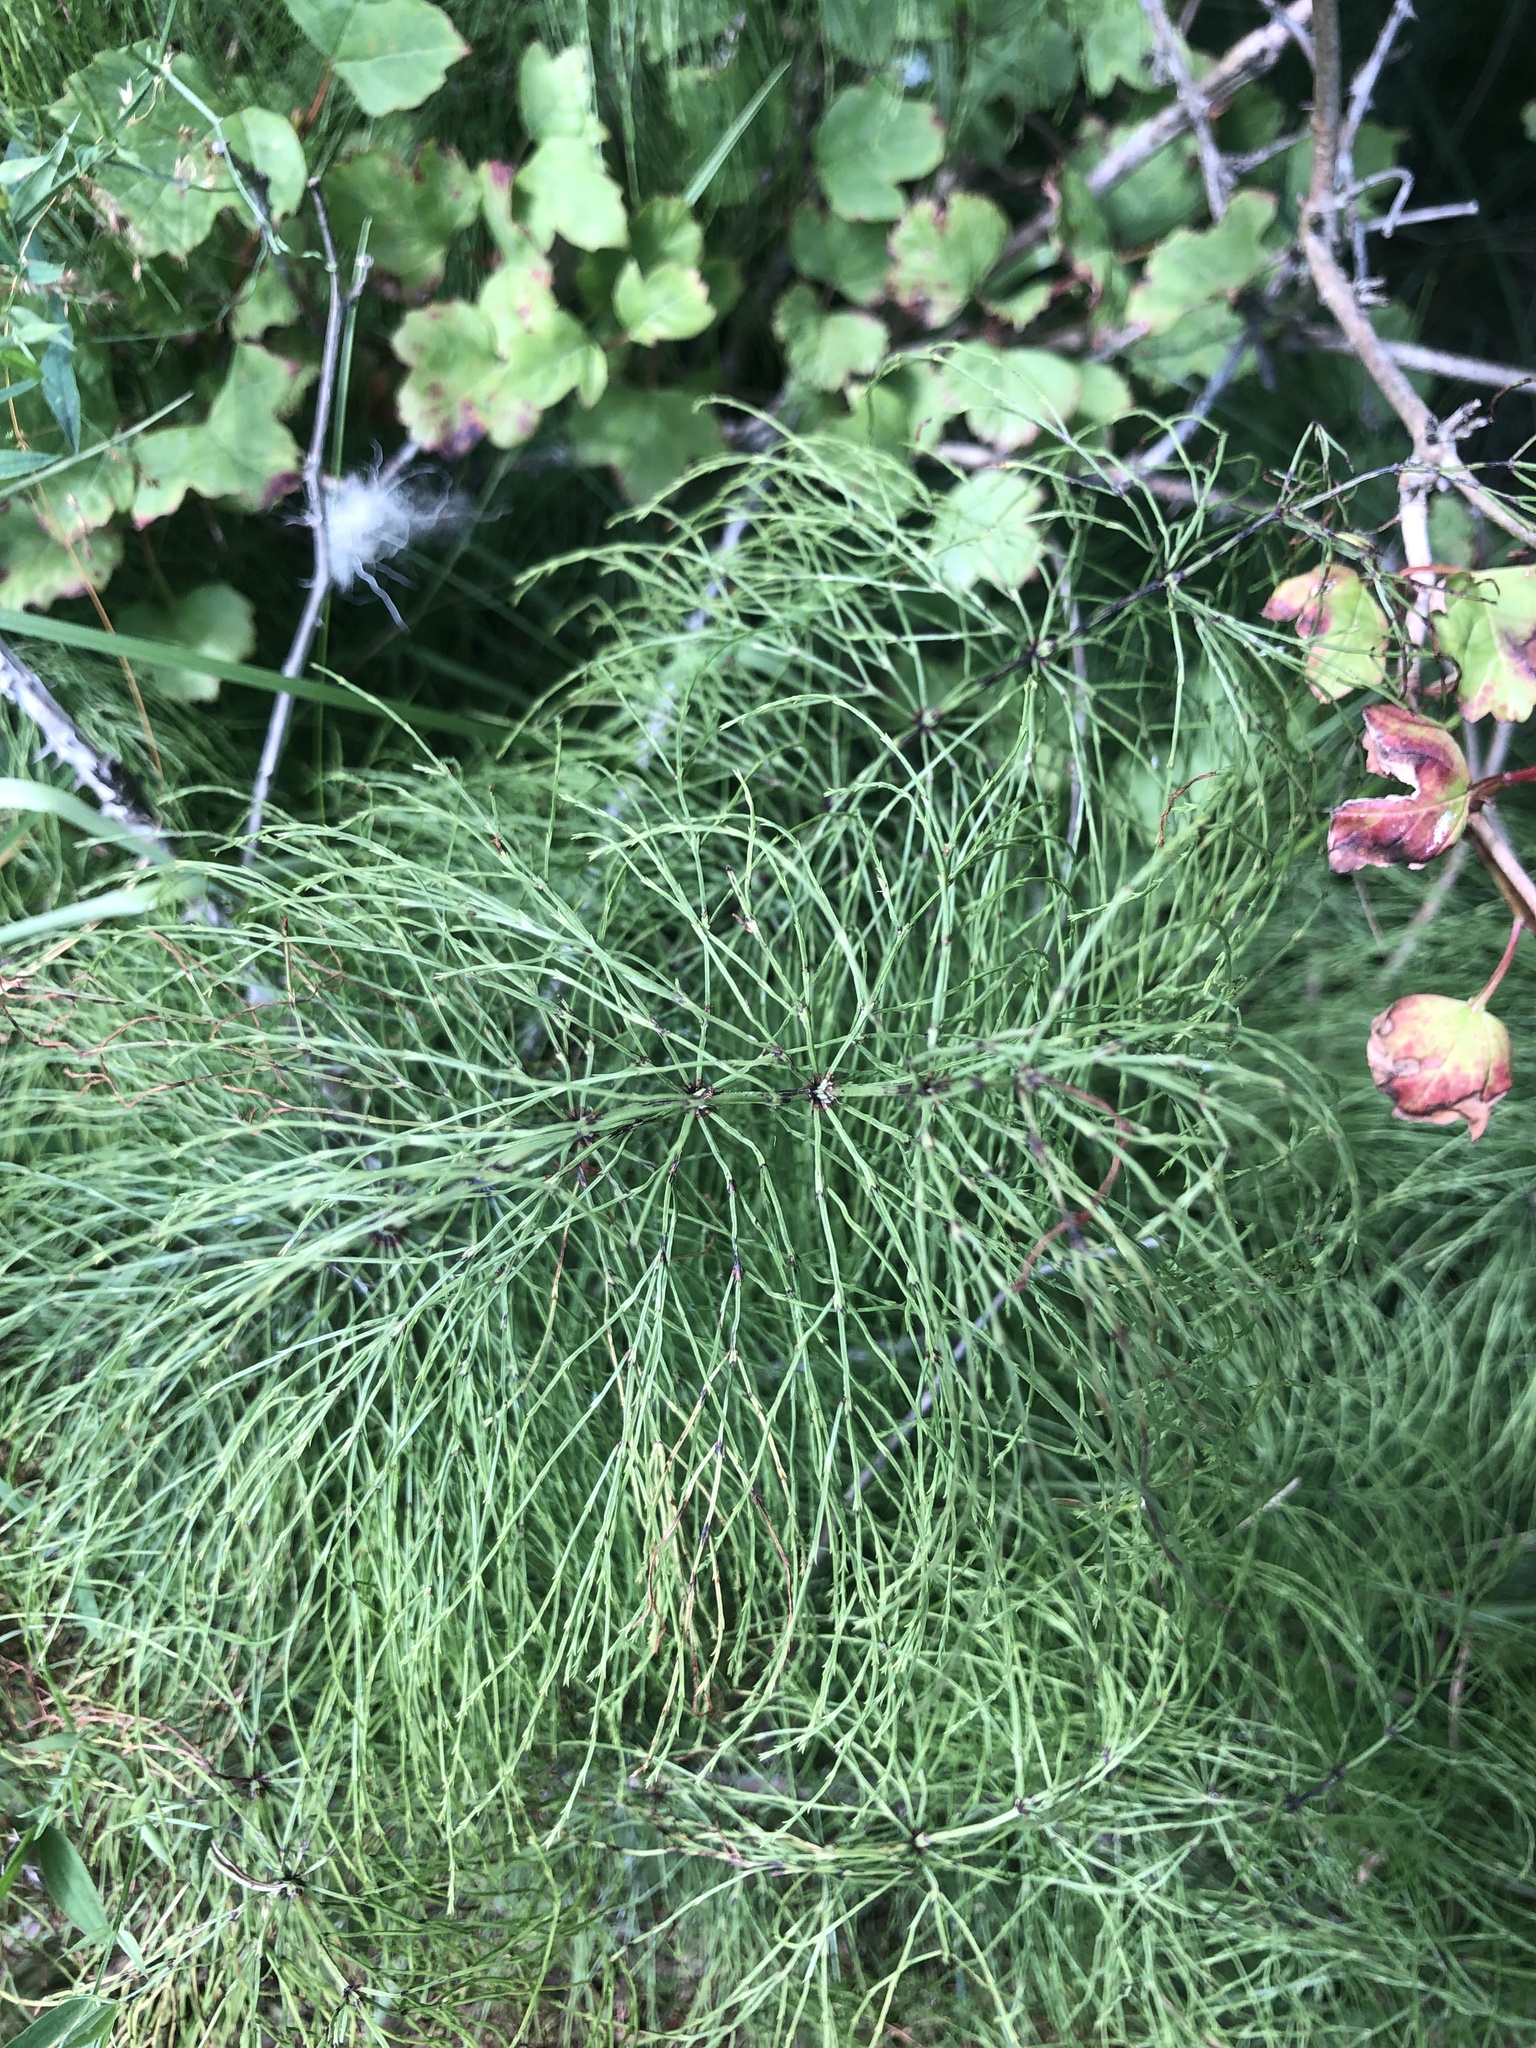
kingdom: Plantae
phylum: Tracheophyta
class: Polypodiopsida
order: Equisetales
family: Equisetaceae
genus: Equisetum
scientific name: Equisetum sylvaticum
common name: Wood horsetail
